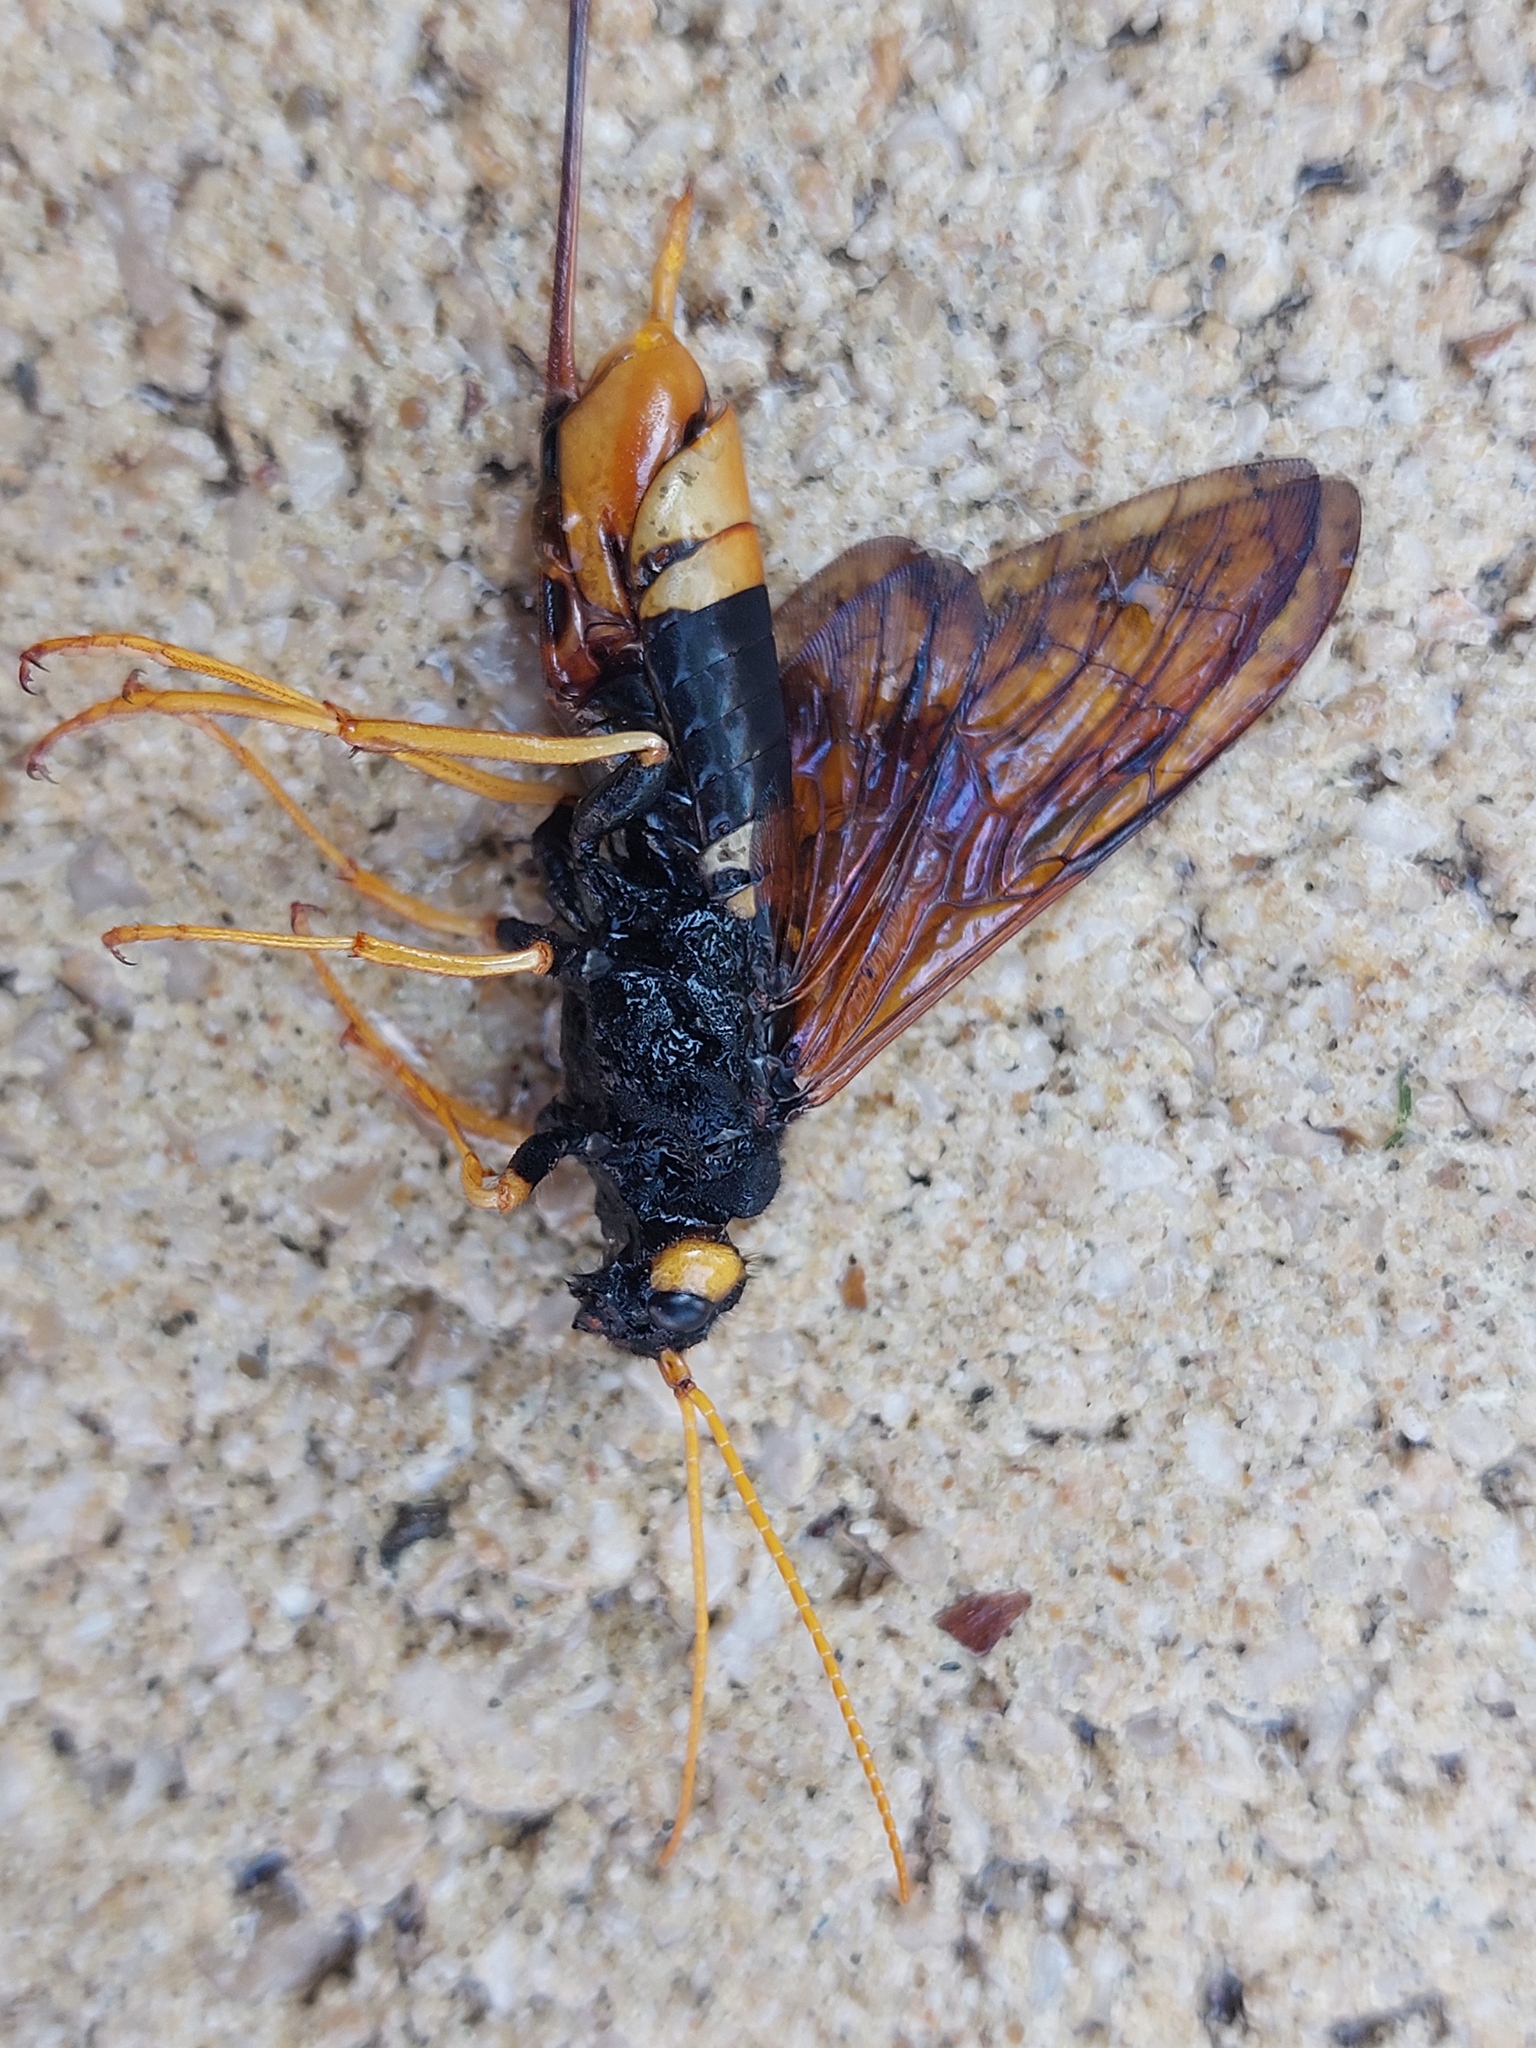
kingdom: Animalia
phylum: Arthropoda
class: Insecta
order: Hymenoptera
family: Siricidae
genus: Urocerus
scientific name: Urocerus gigas
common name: Giant woodwasp
